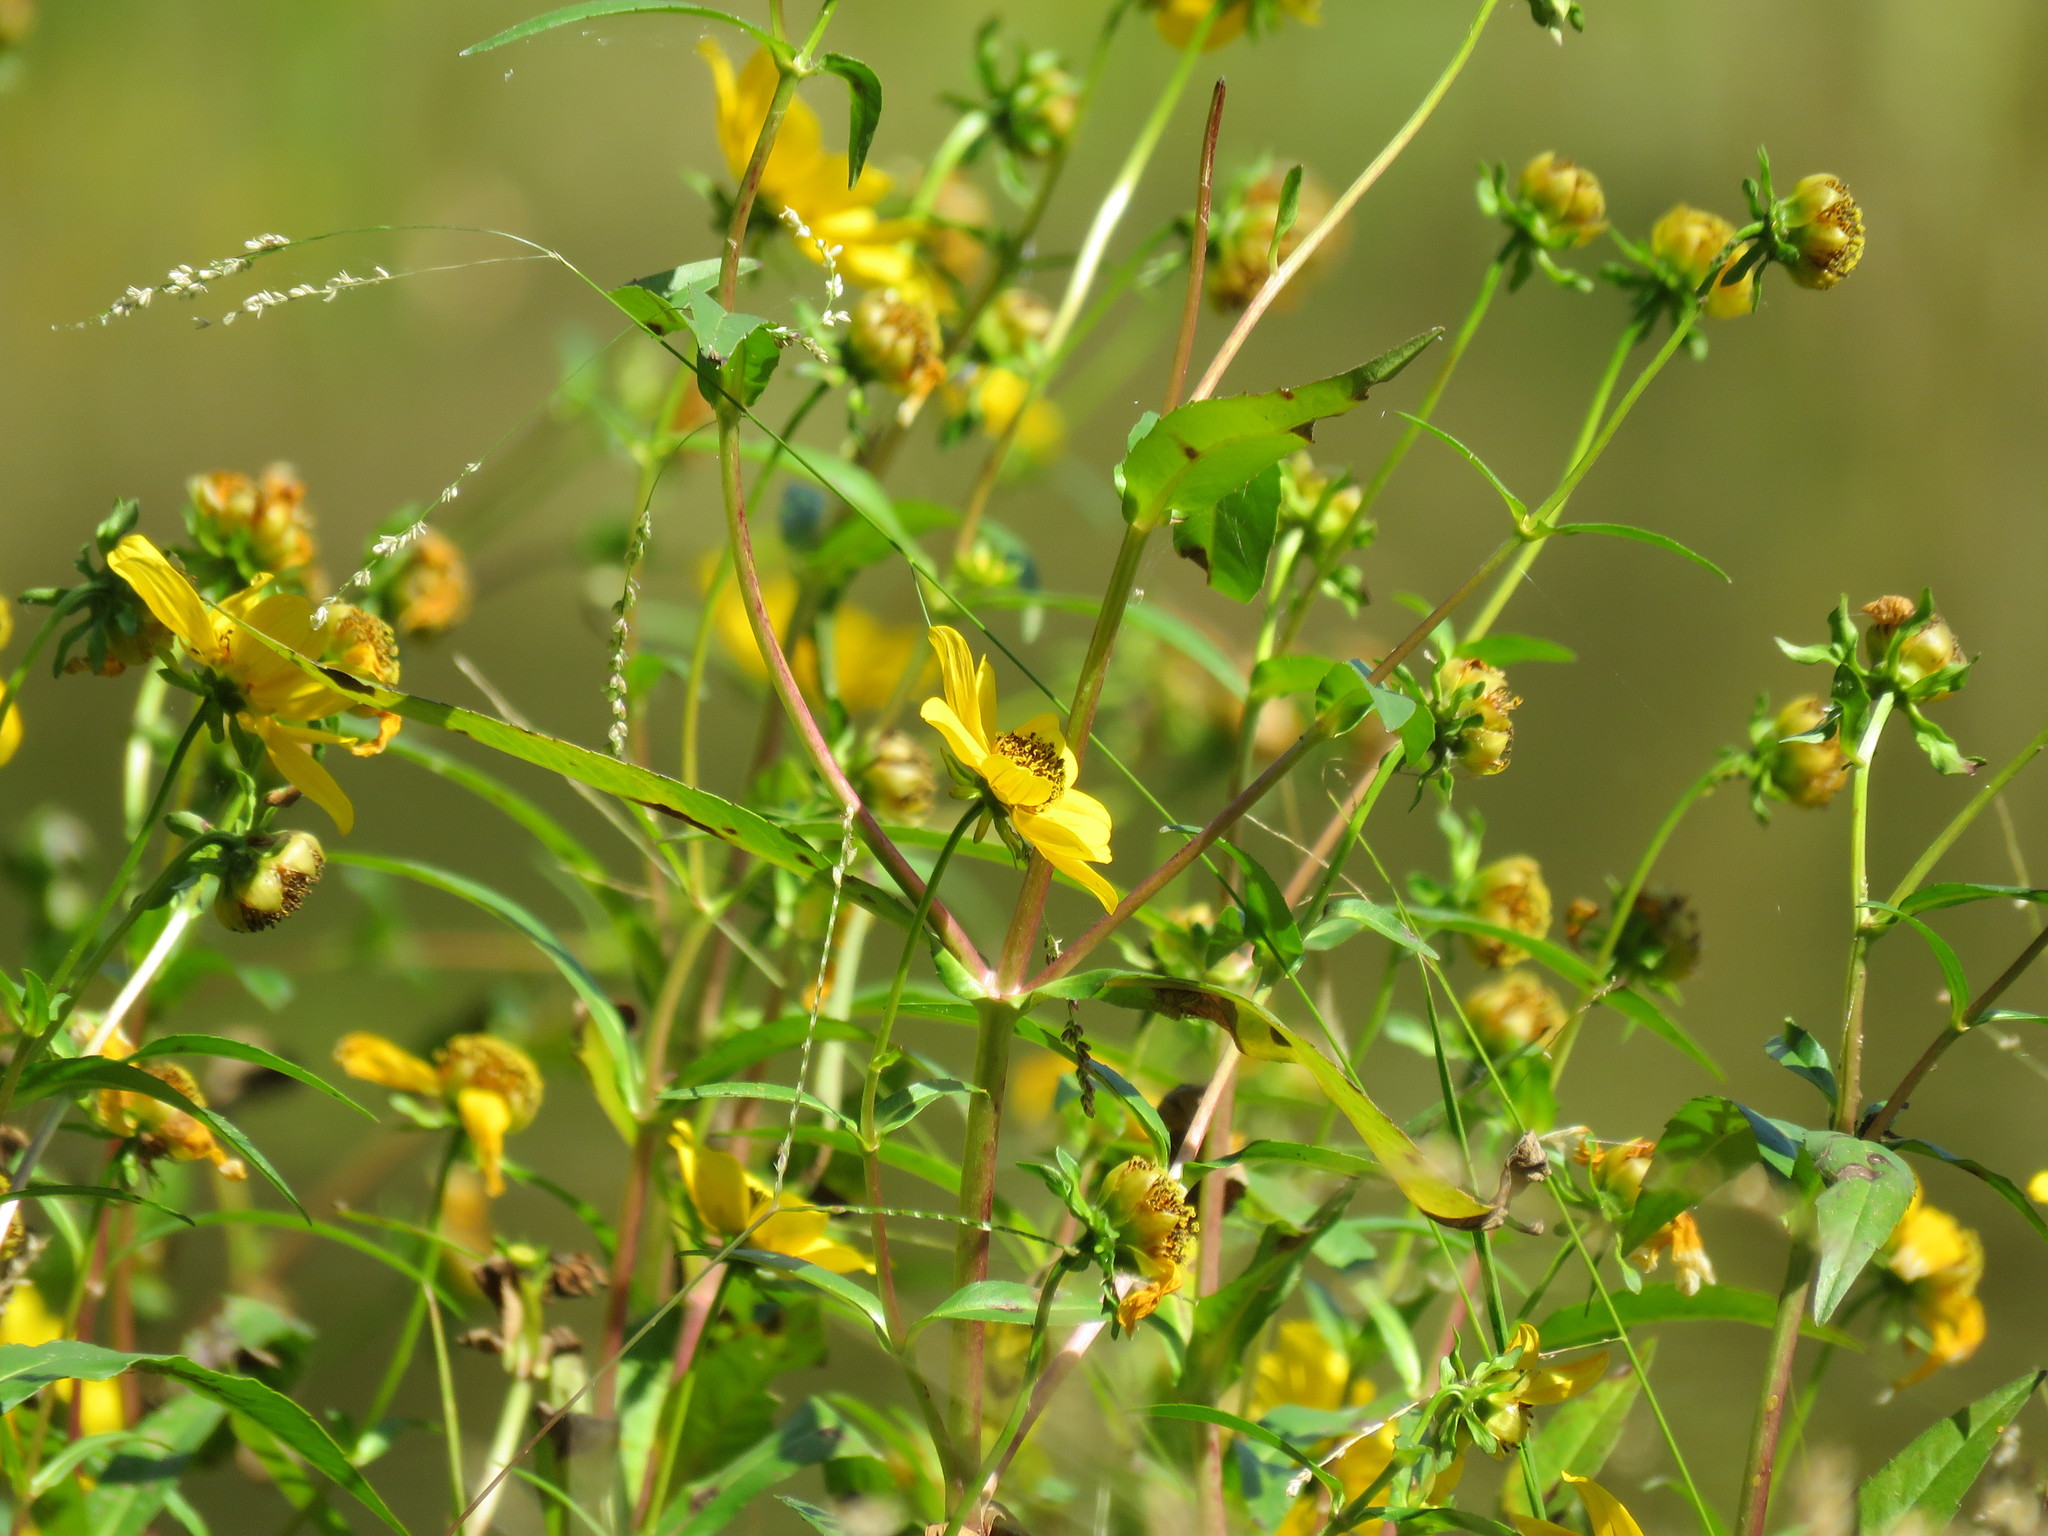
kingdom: Plantae
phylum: Tracheophyta
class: Magnoliopsida
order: Asterales
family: Asteraceae
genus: Bidens
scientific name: Bidens laevis
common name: Larger bur-marigold
